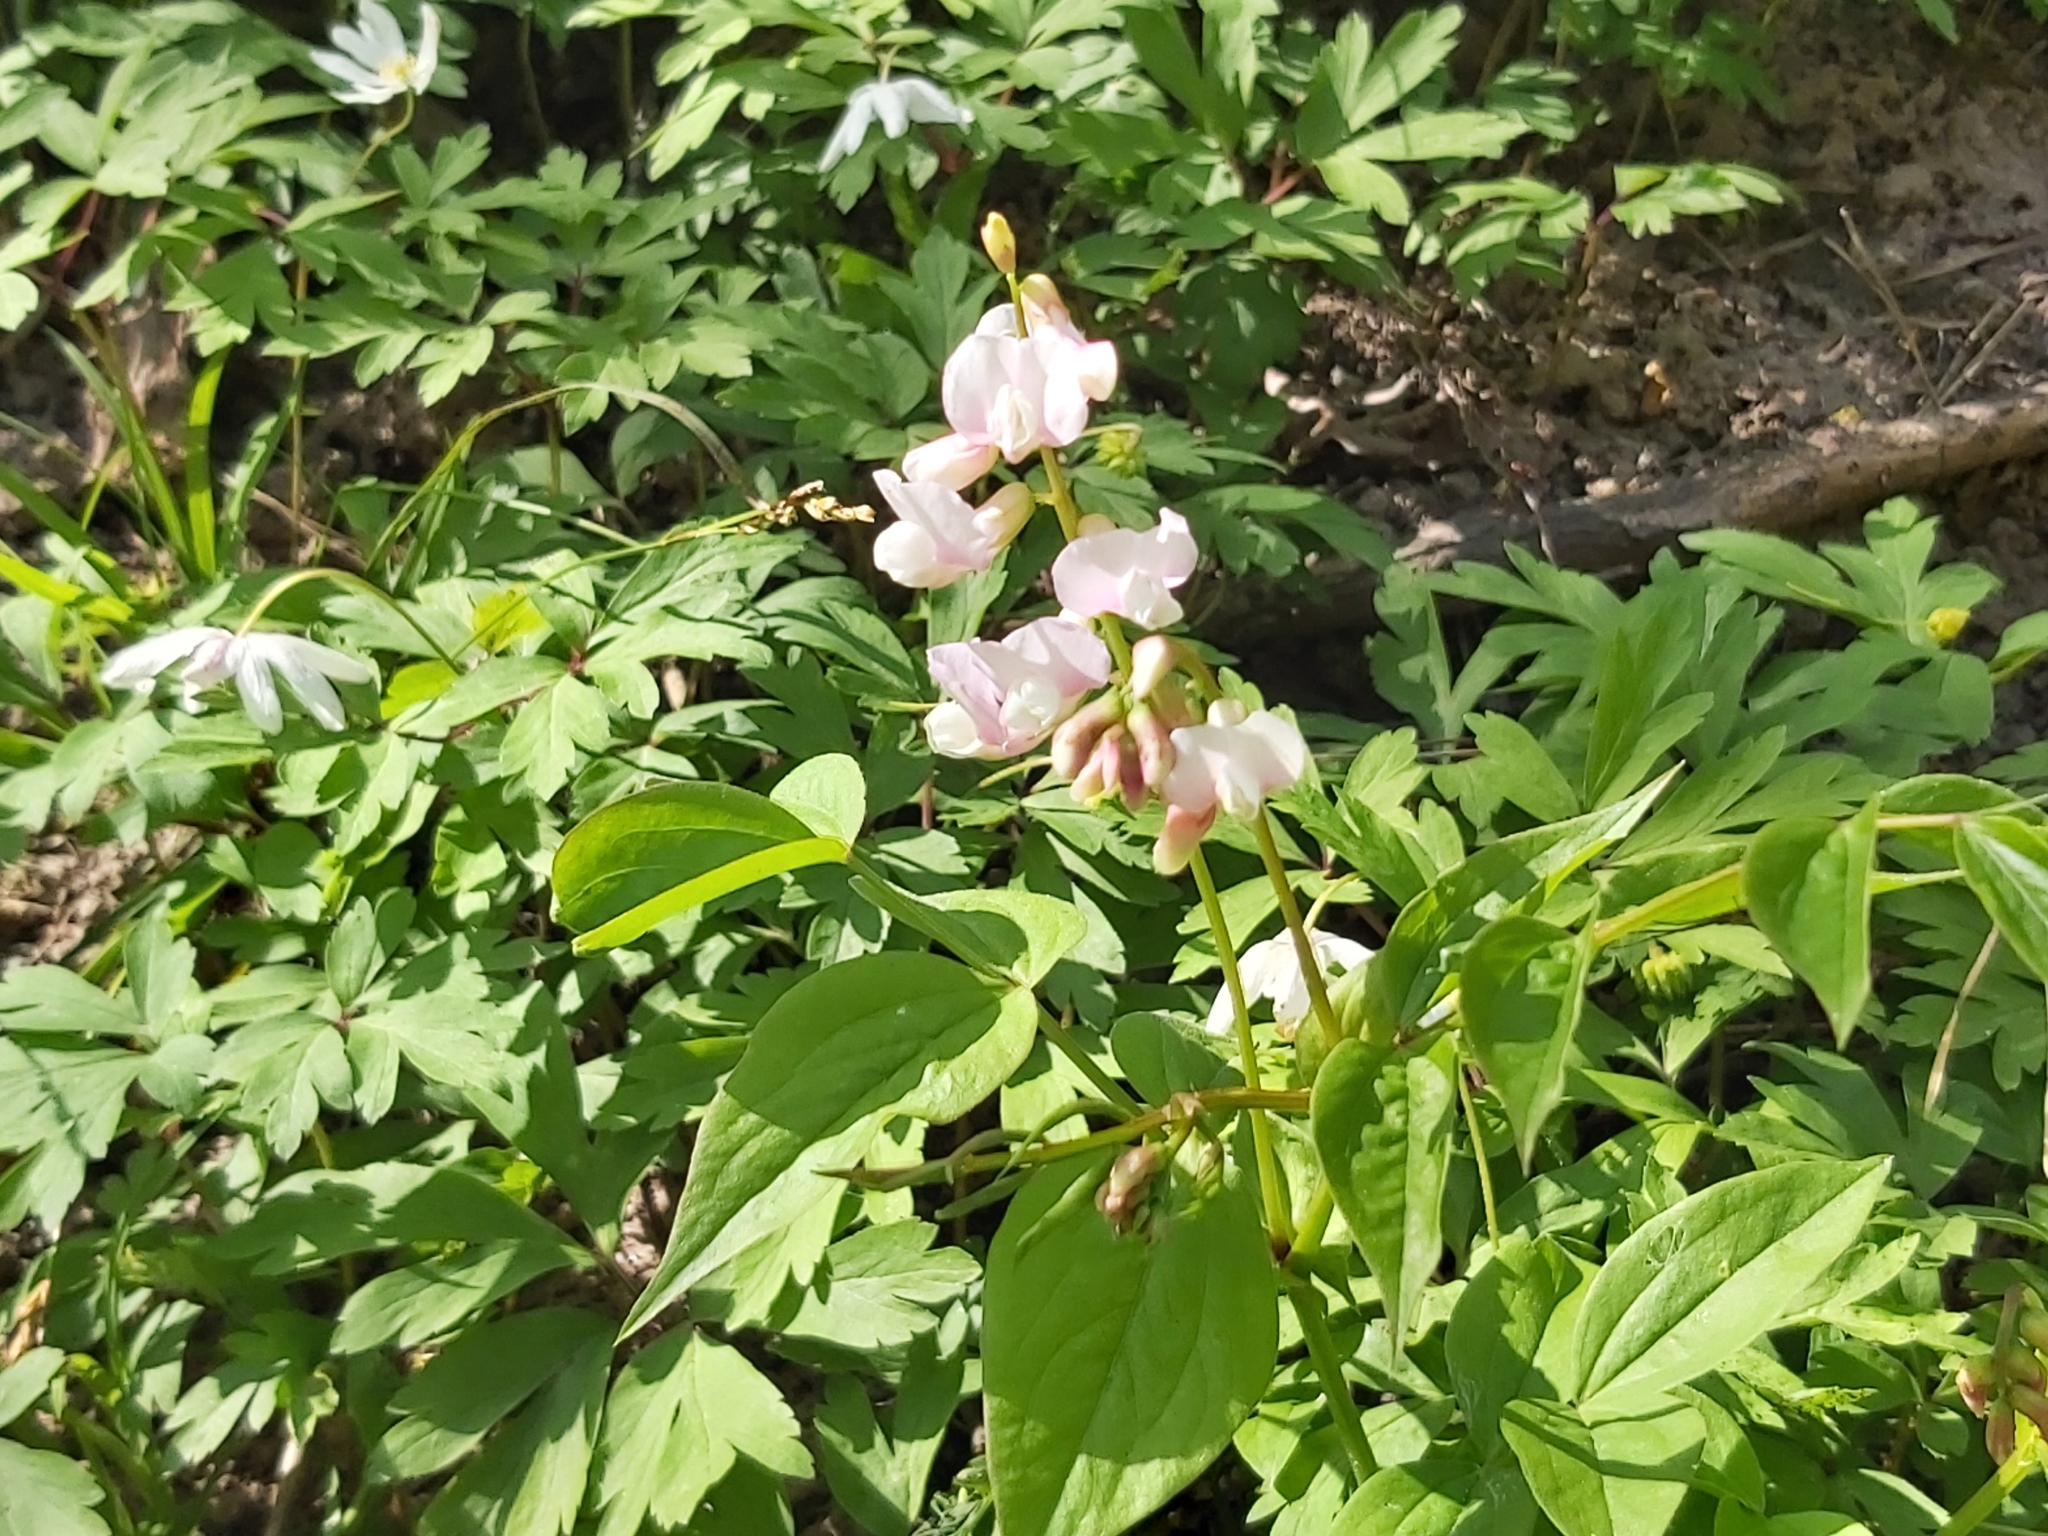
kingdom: Plantae
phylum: Tracheophyta
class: Magnoliopsida
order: Fabales
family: Fabaceae
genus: Lathyrus
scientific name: Lathyrus vernus
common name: Spring pea
